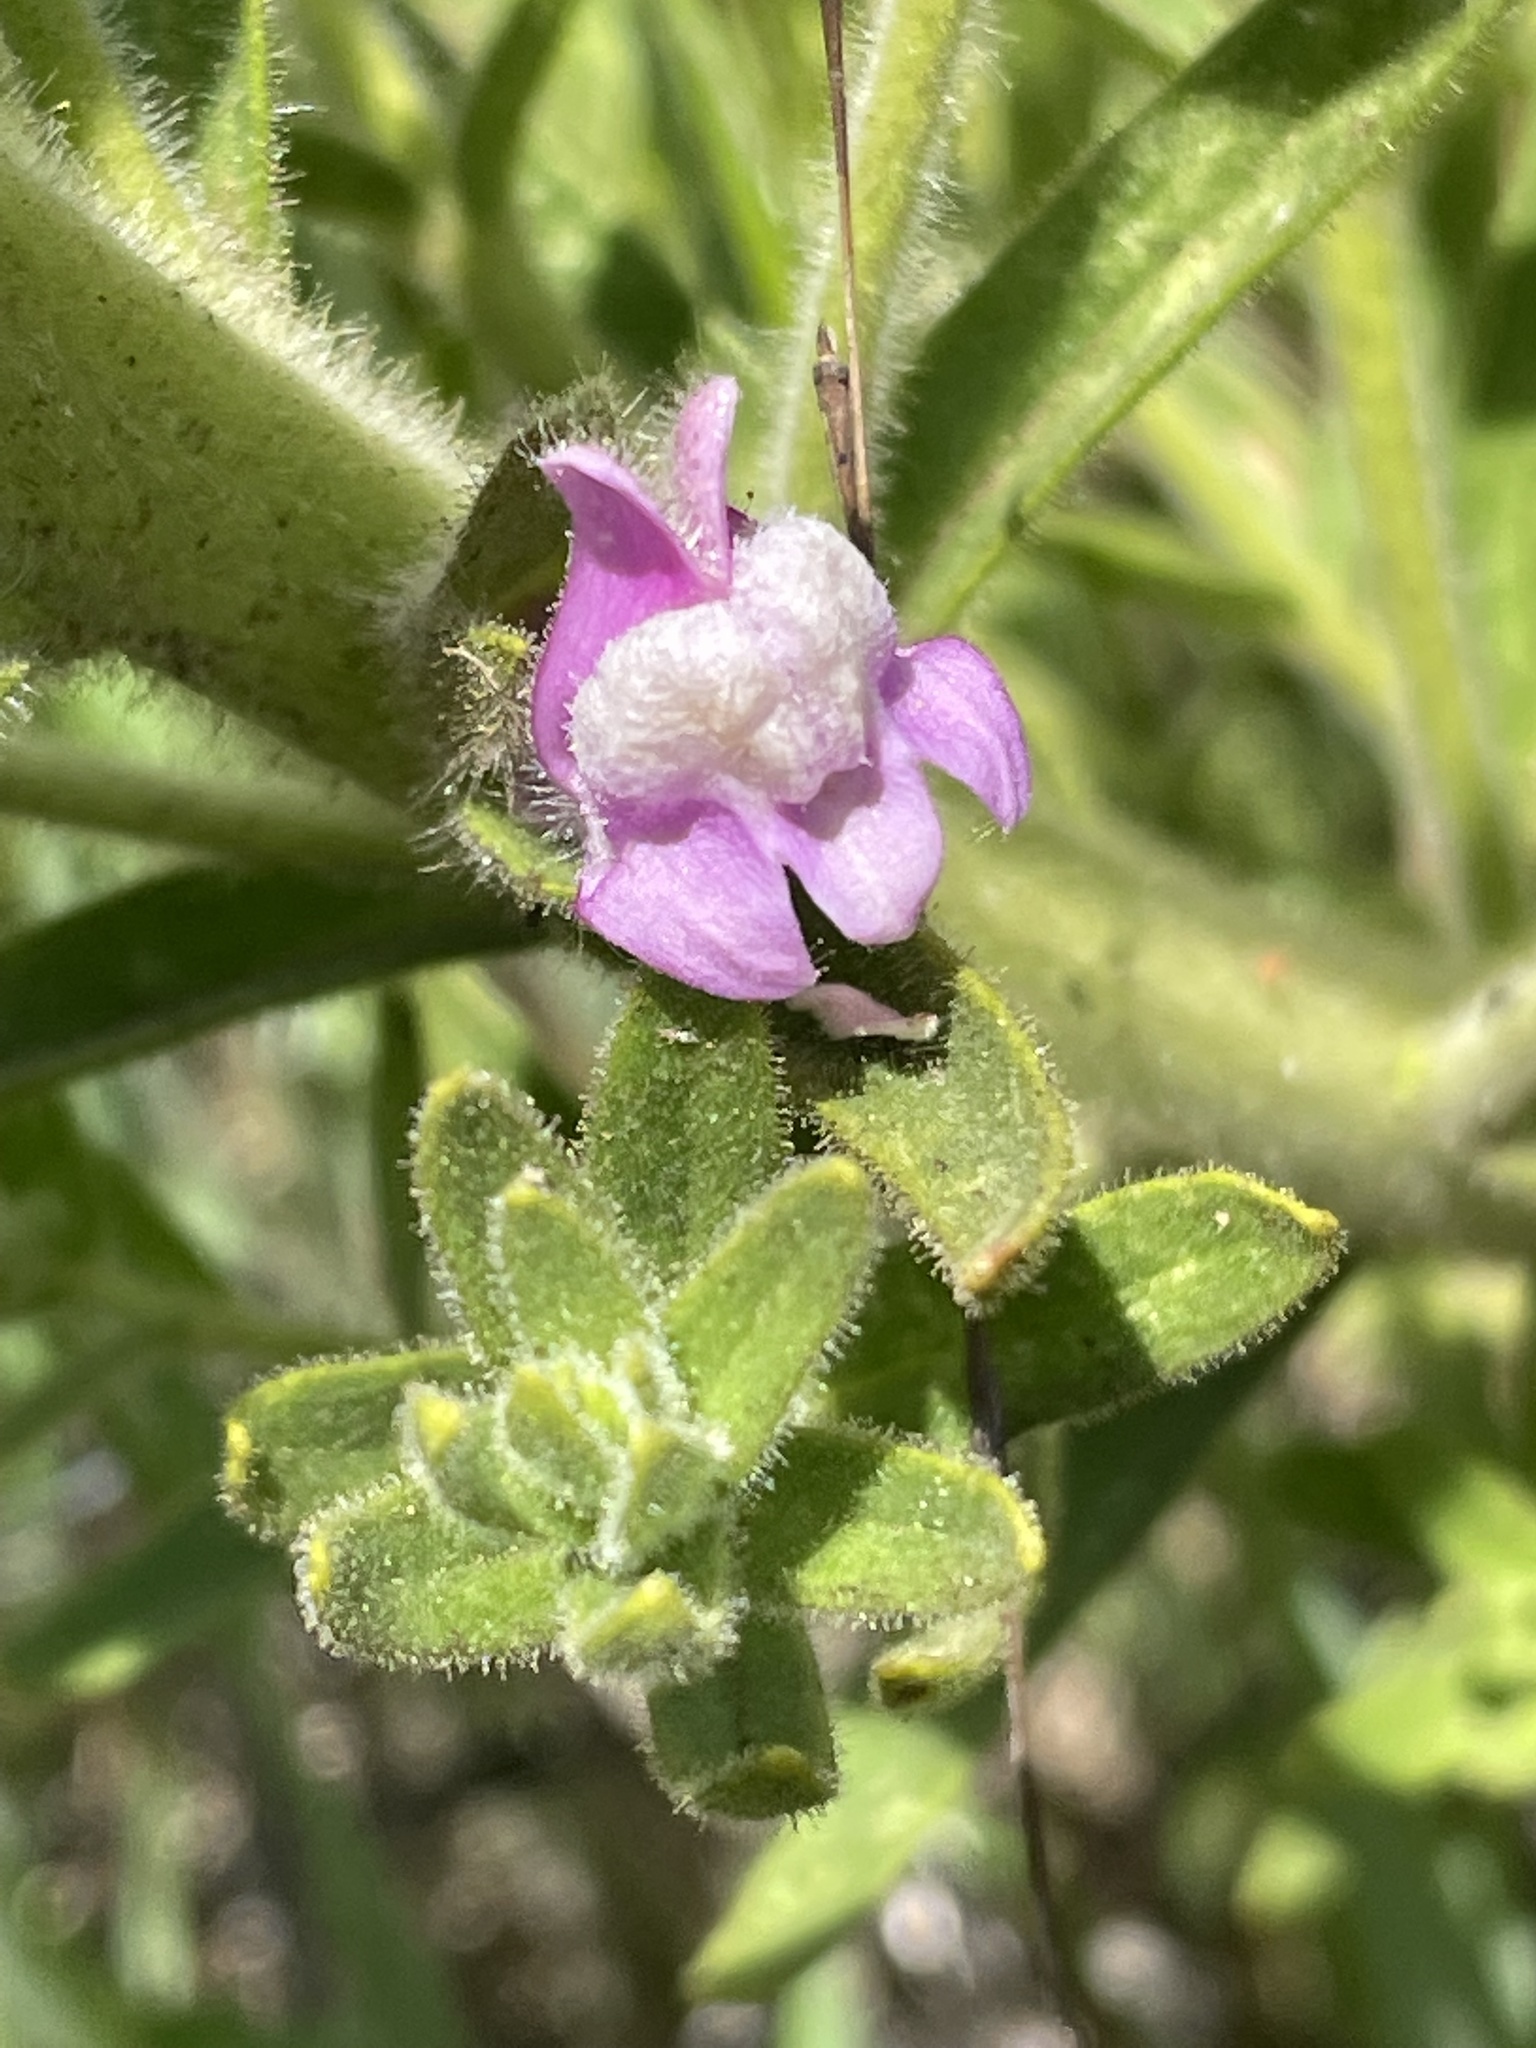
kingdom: Plantae
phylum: Tracheophyta
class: Magnoliopsida
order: Lamiales
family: Plantaginaceae
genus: Sairocarpus
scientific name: Sairocarpus multiflorus
